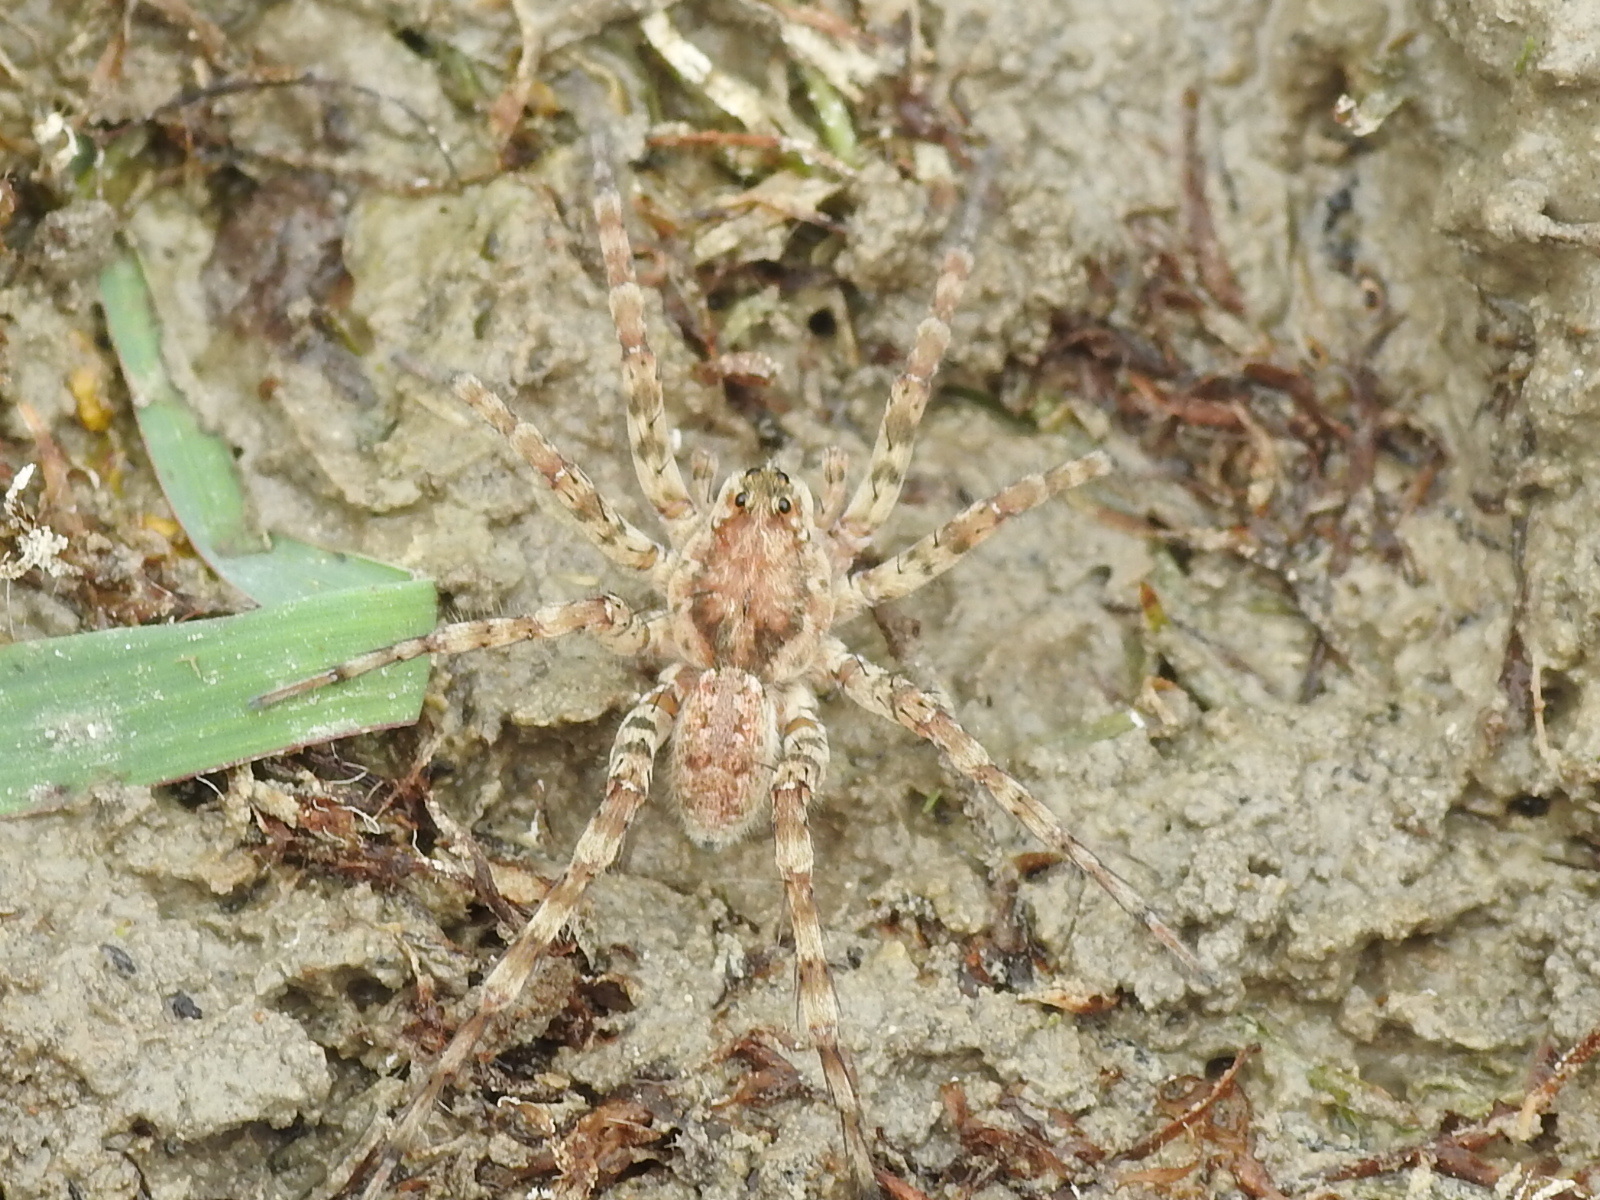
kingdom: Animalia
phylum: Arthropoda
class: Arachnida
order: Araneae
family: Lycosidae
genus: Arctosa
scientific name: Arctosa littoralis
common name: Wolf spiders
